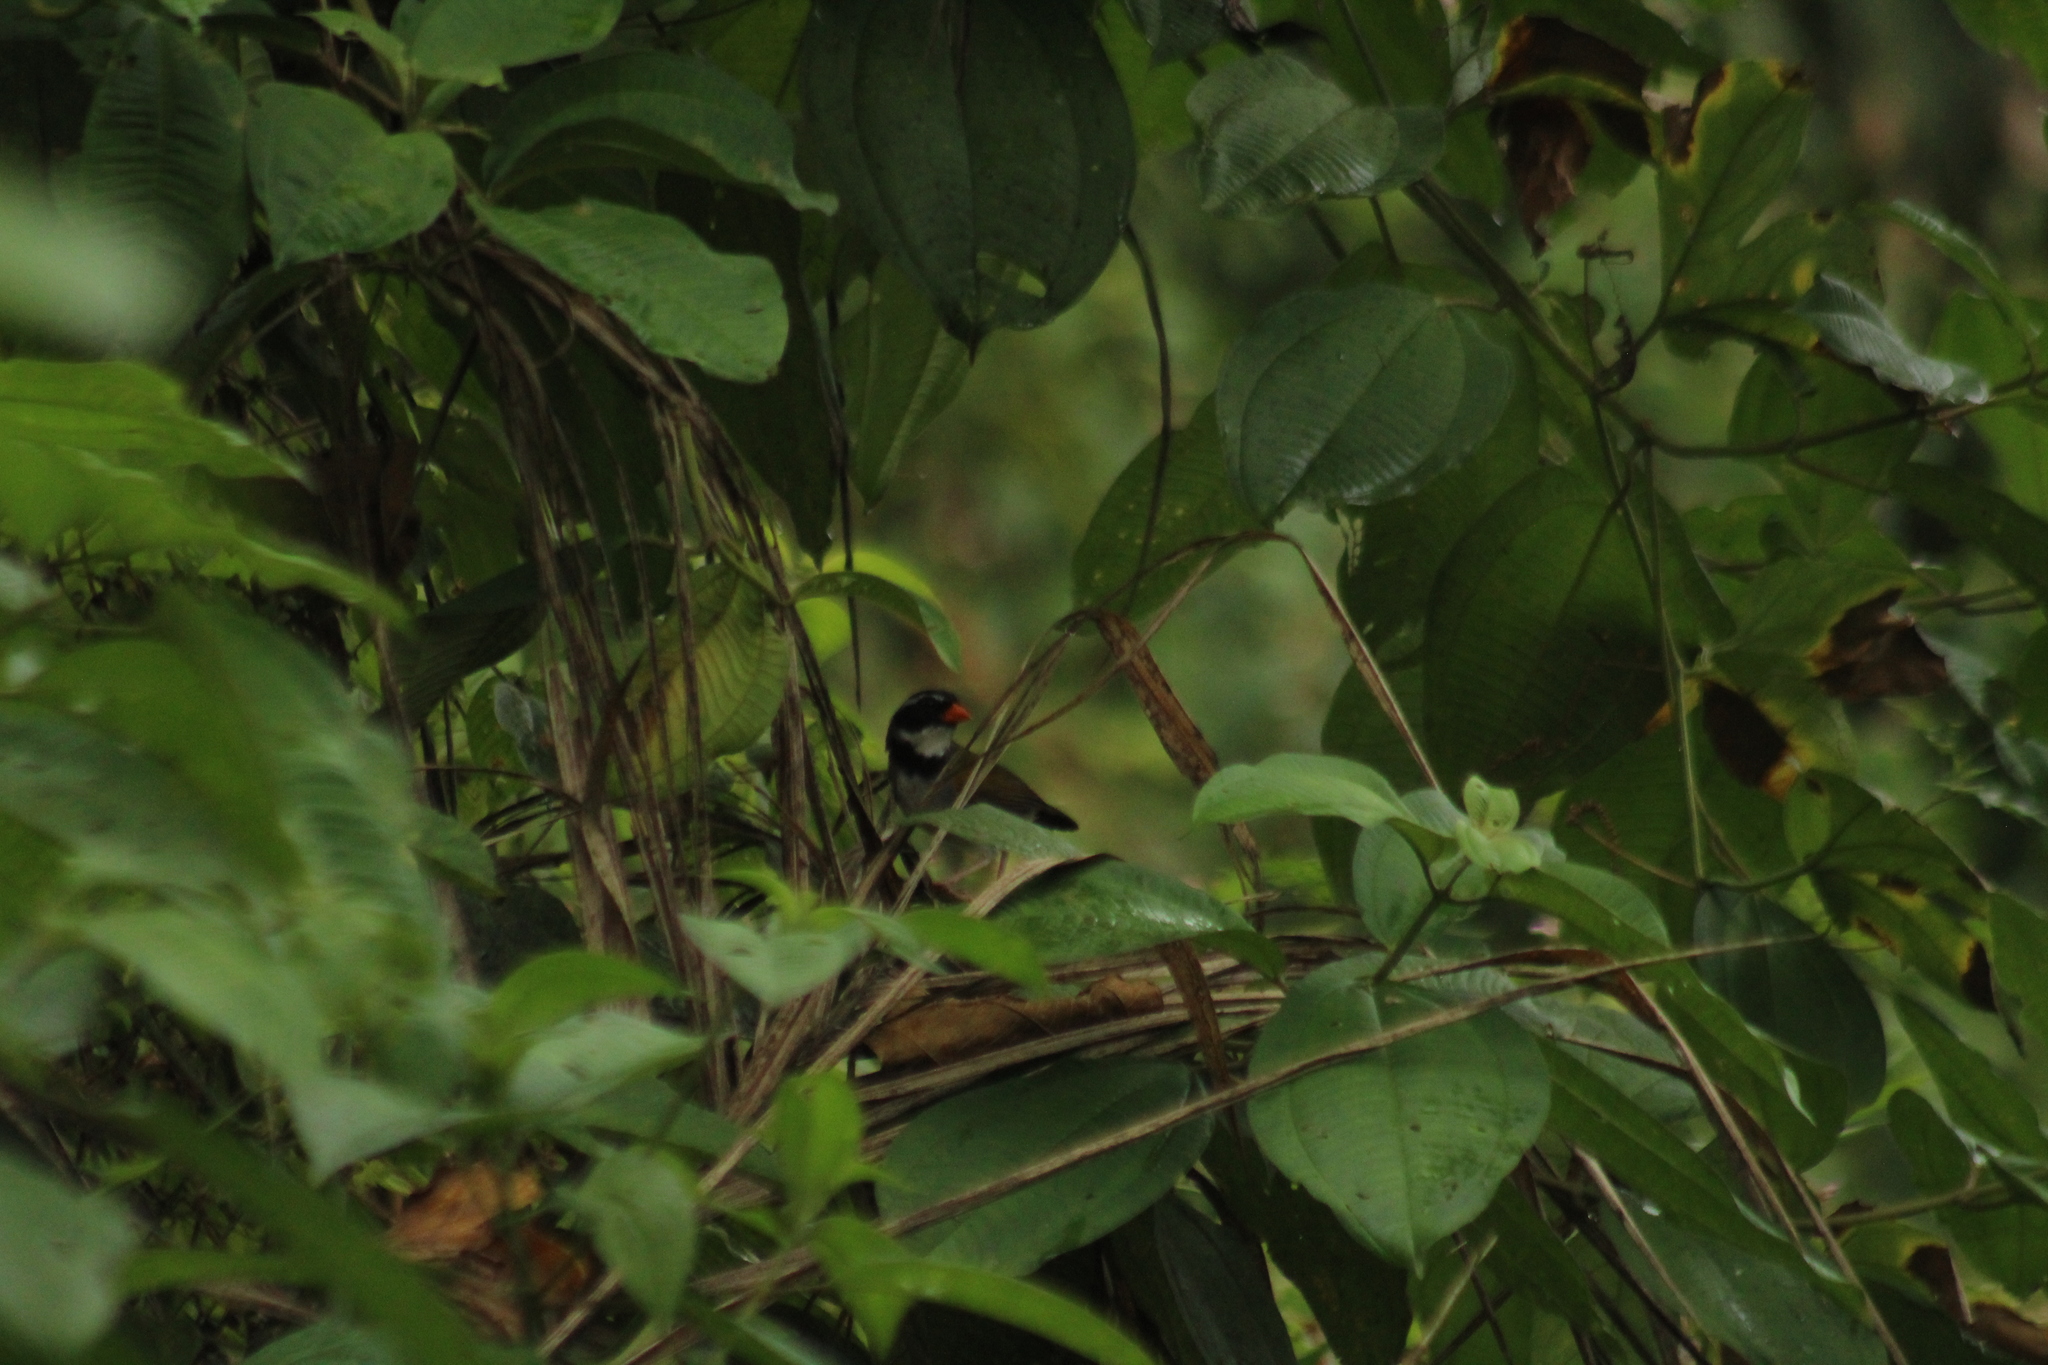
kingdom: Animalia
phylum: Chordata
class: Aves
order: Passeriformes
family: Passerellidae
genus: Arremon
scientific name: Arremon aurantiirostris
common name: Orange-billed sparrow
